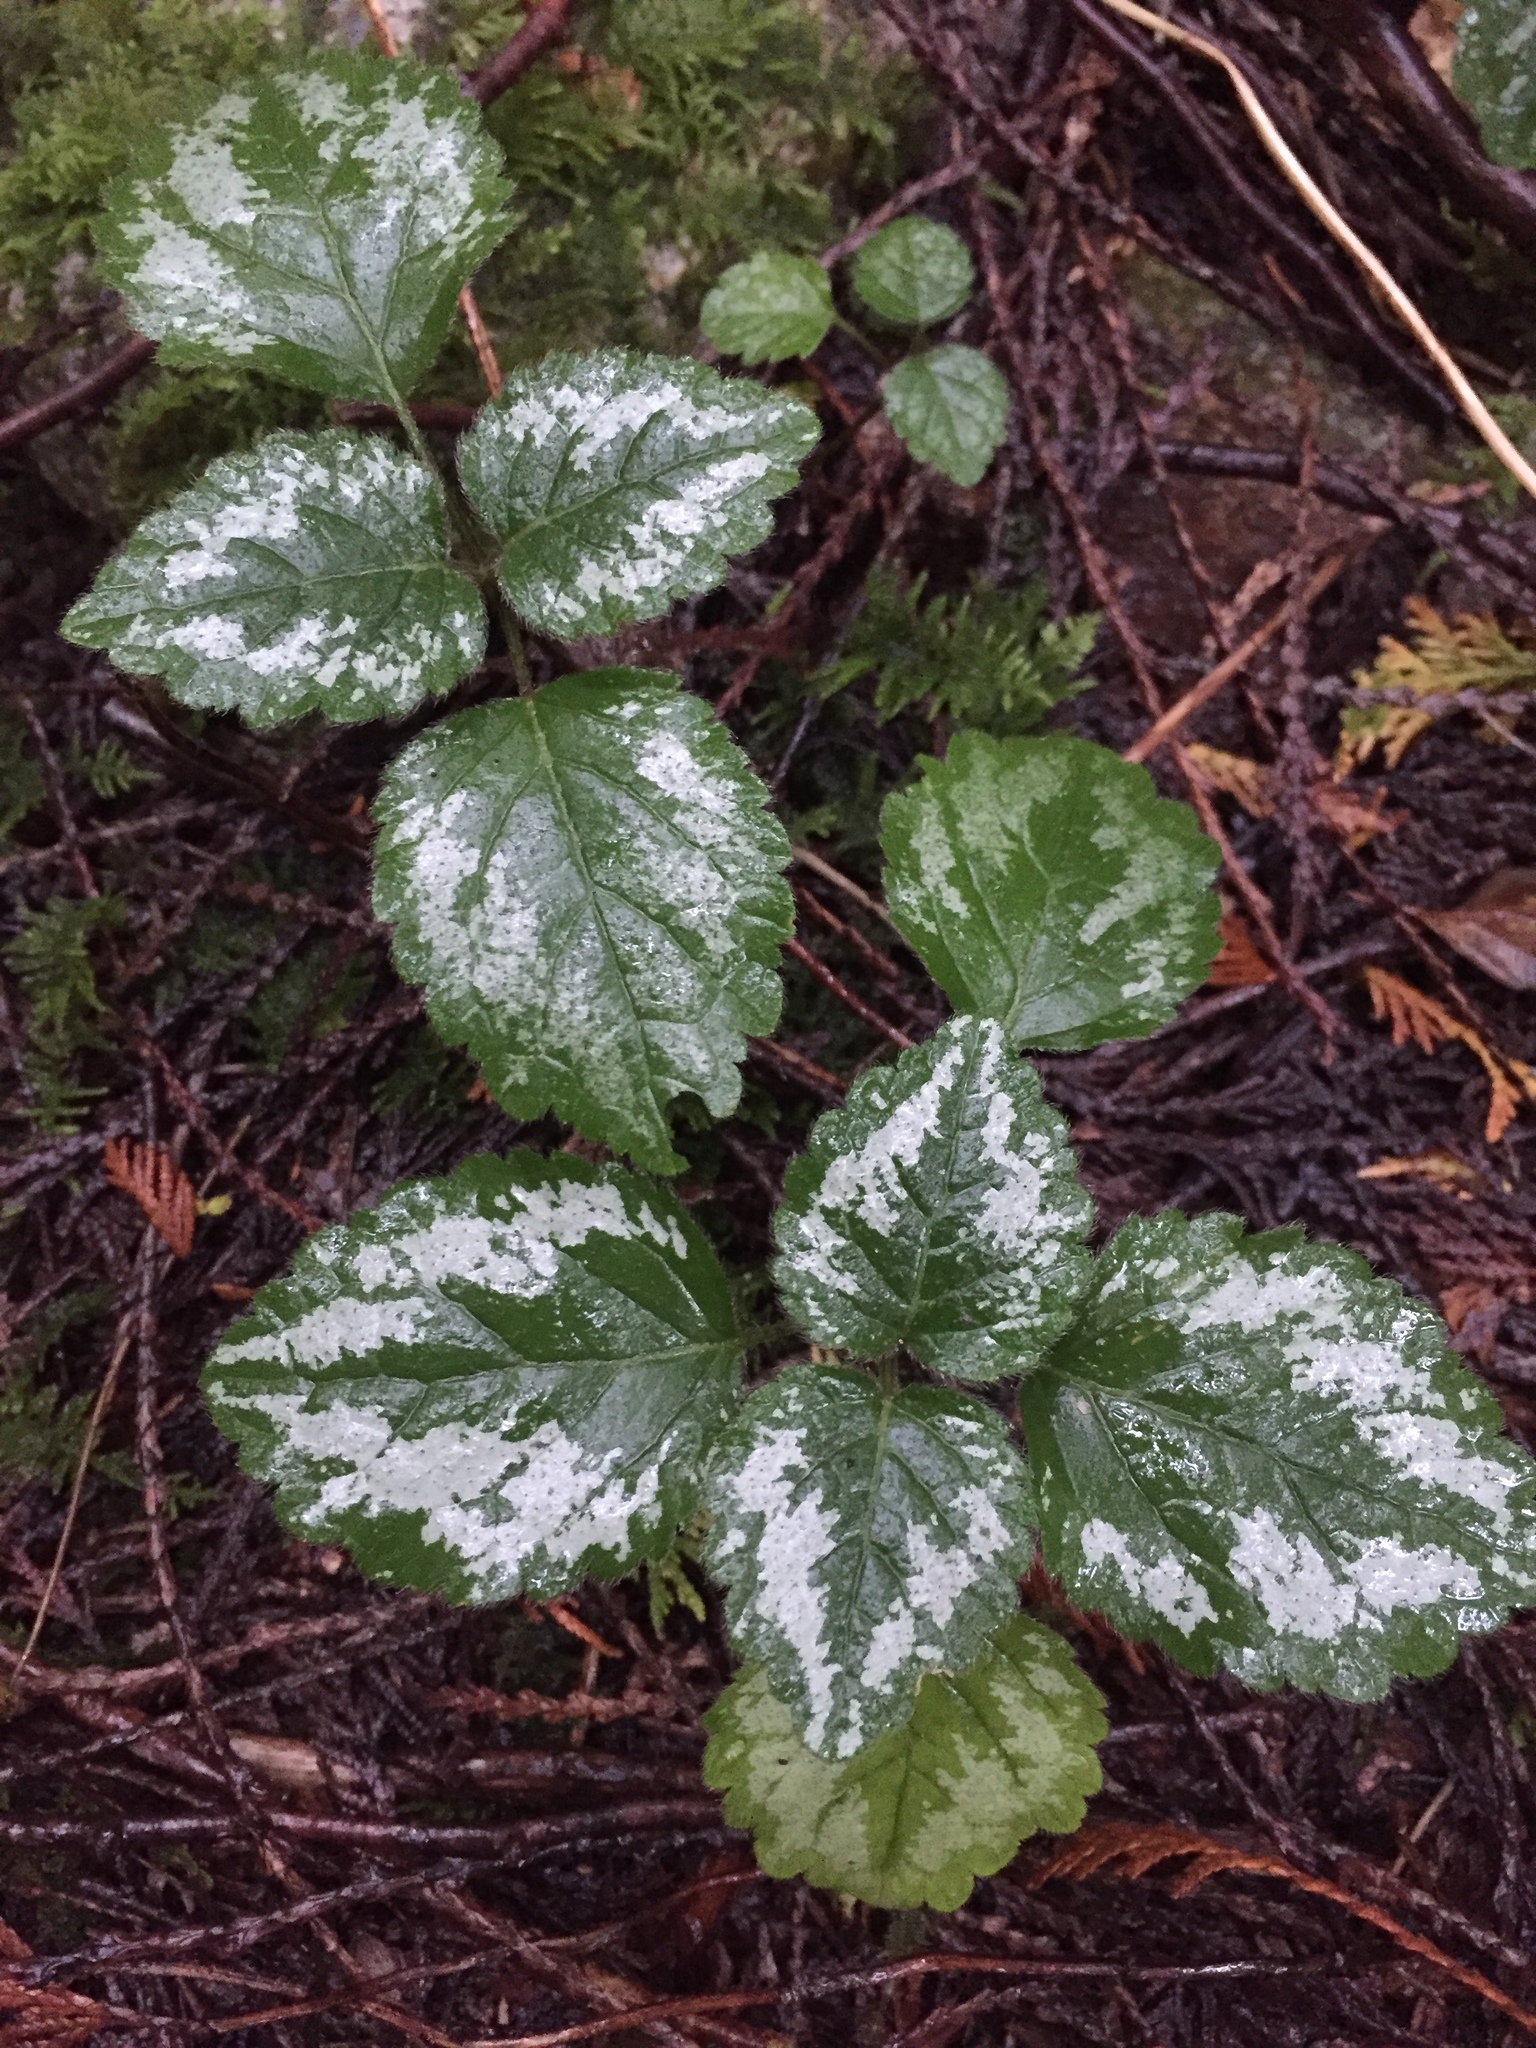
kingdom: Plantae
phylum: Tracheophyta
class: Magnoliopsida
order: Lamiales
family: Lamiaceae
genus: Lamium
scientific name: Lamium galeobdolon
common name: Yellow archangel
